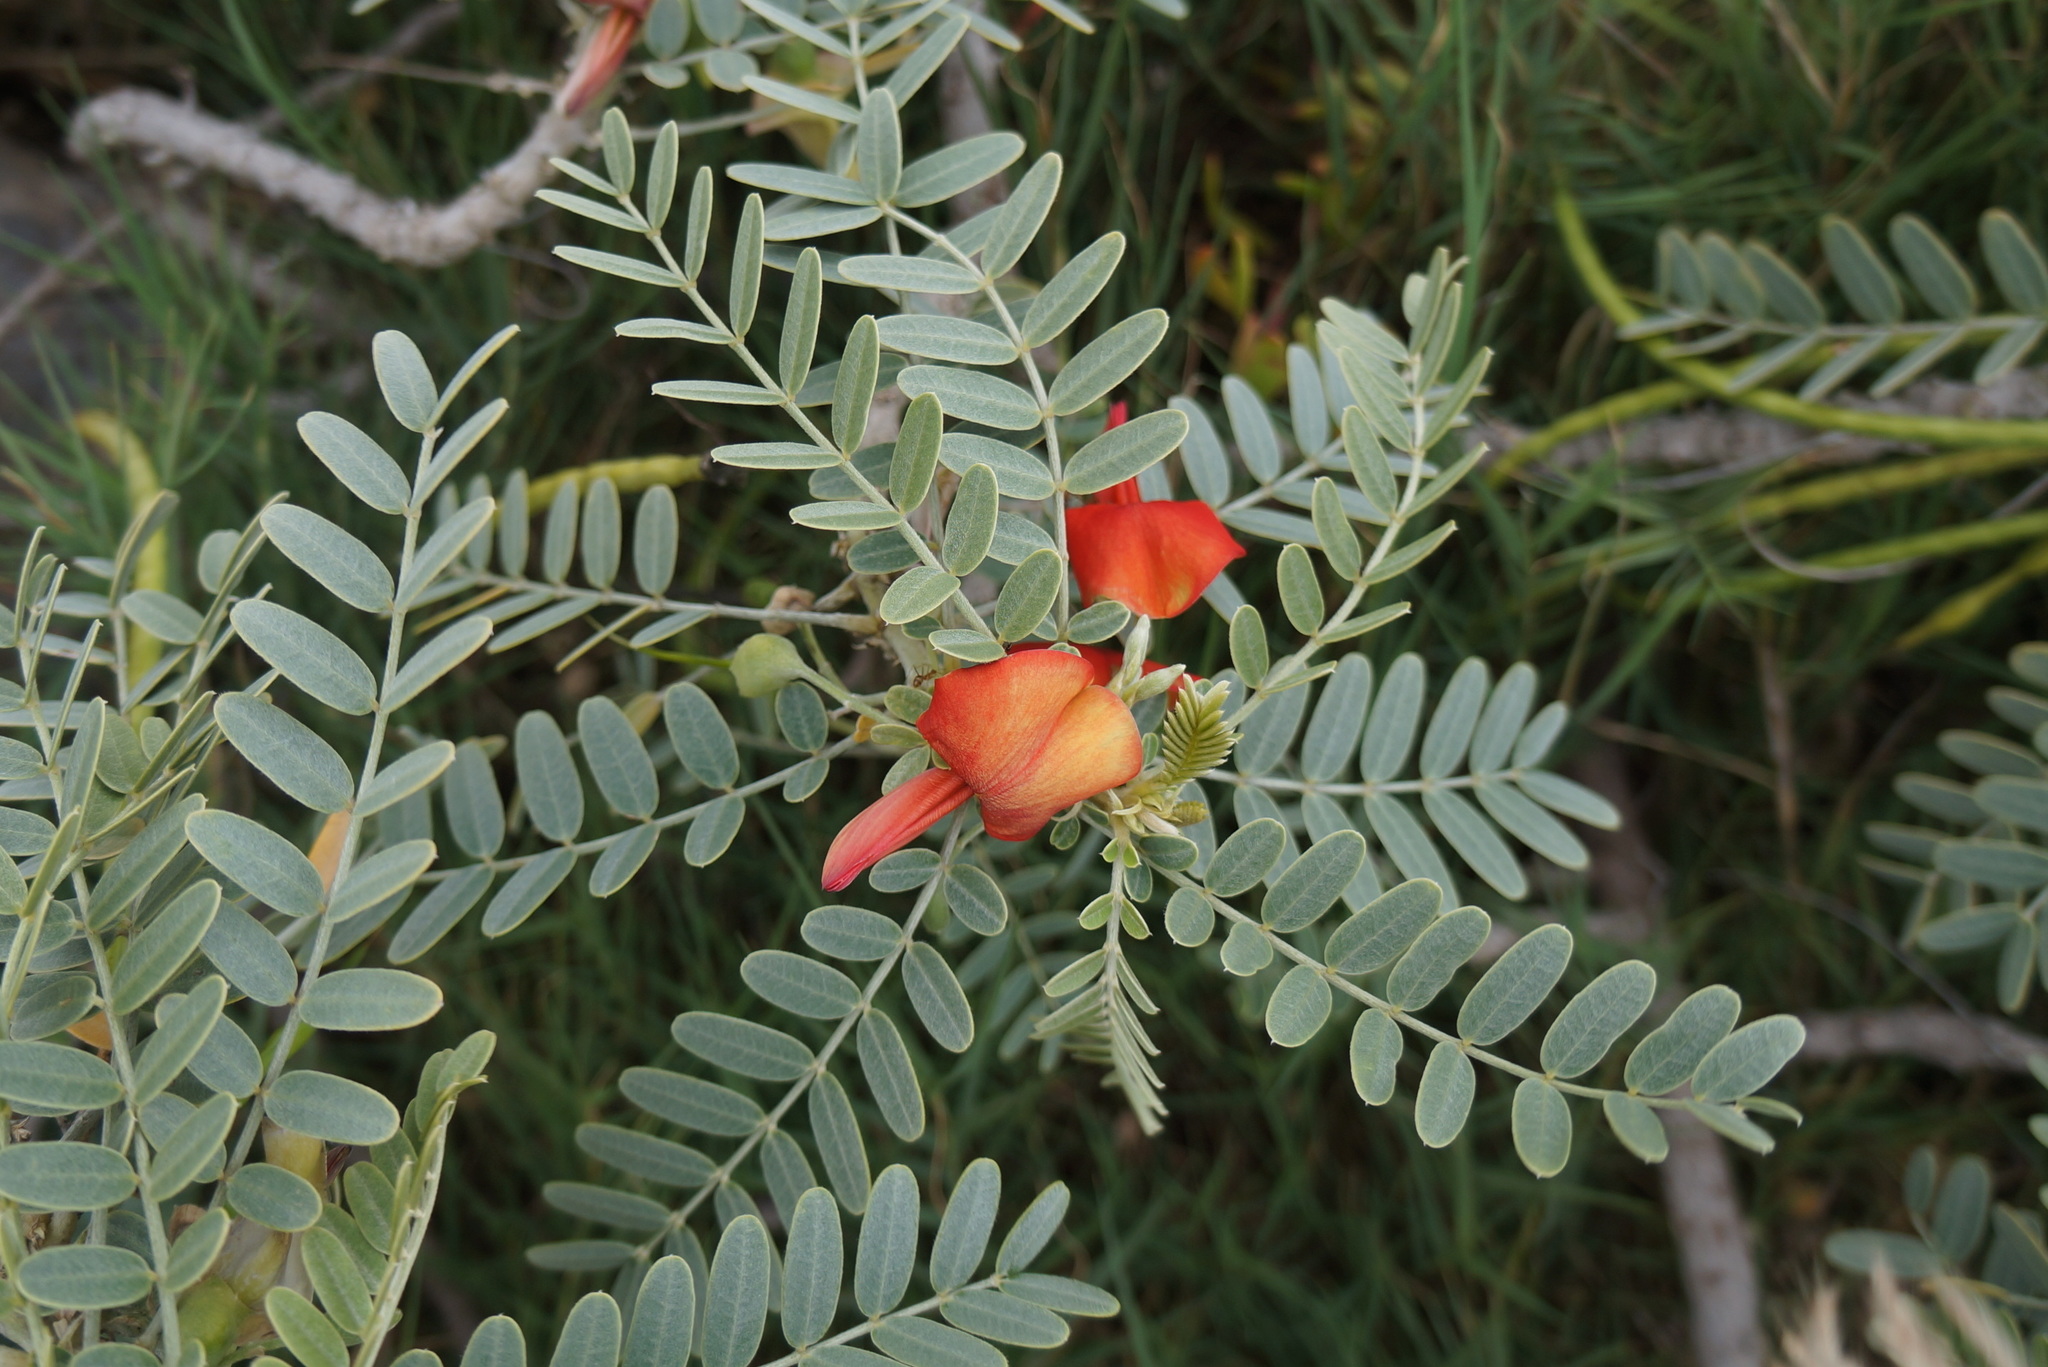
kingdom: Plantae
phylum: Tracheophyta
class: Magnoliopsida
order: Fabales
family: Fabaceae
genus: Sesbania
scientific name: Sesbania tomentosa
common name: `ohai
